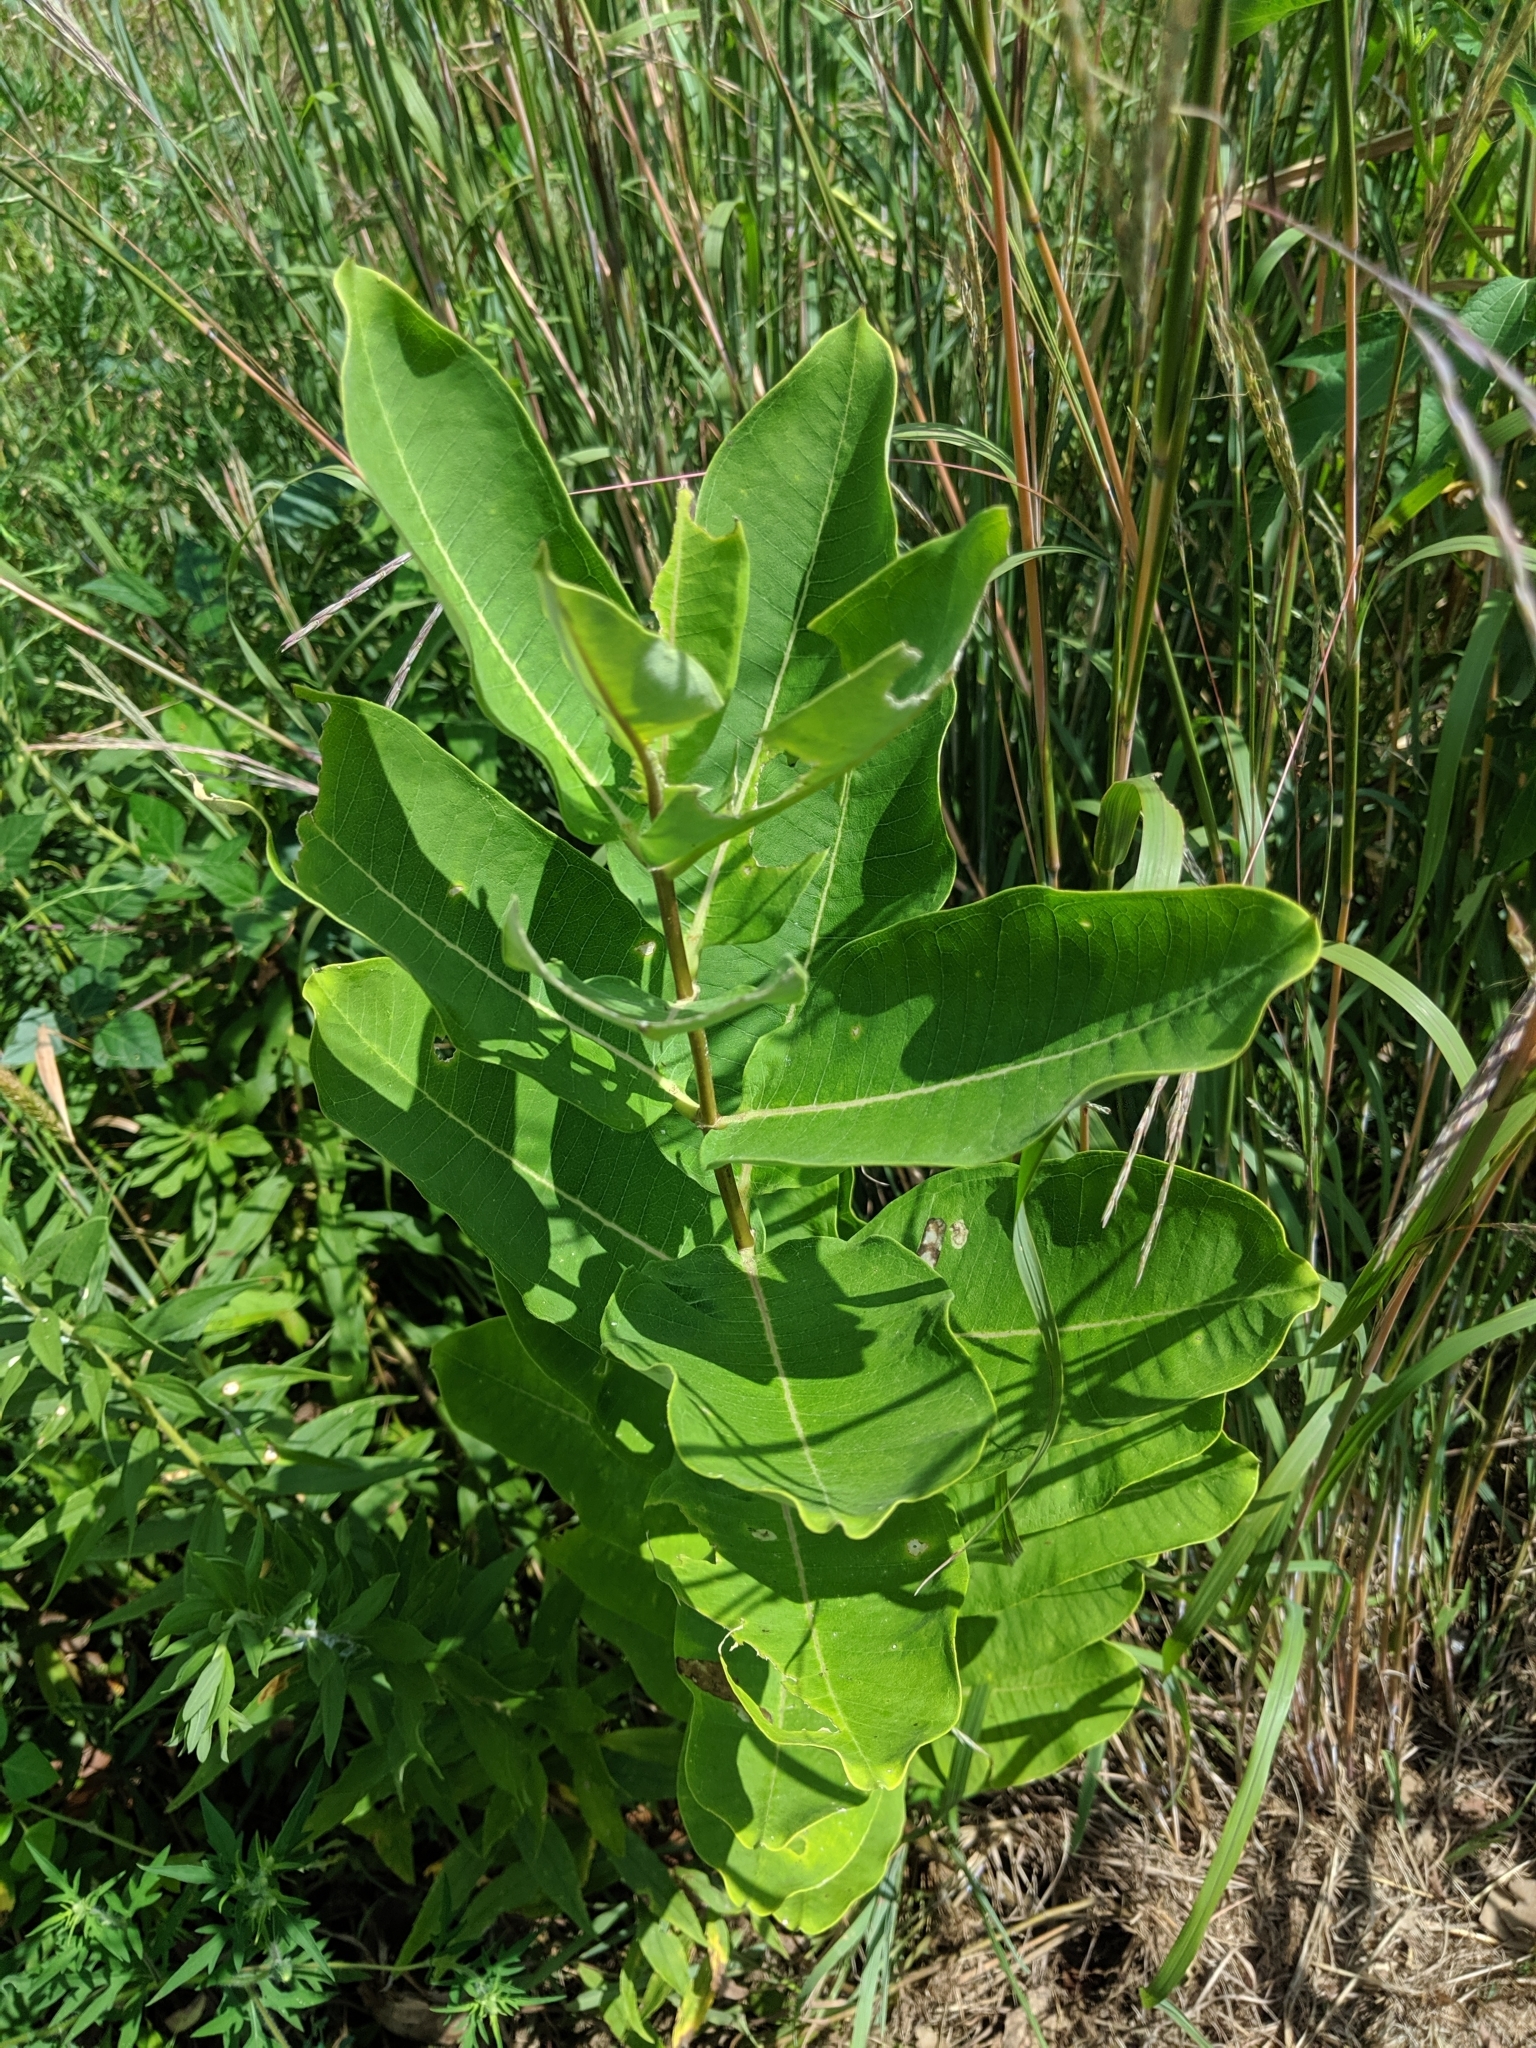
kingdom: Plantae
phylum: Tracheophyta
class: Magnoliopsida
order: Gentianales
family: Apocynaceae
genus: Asclepias
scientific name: Asclepias syriaca
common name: Common milkweed
